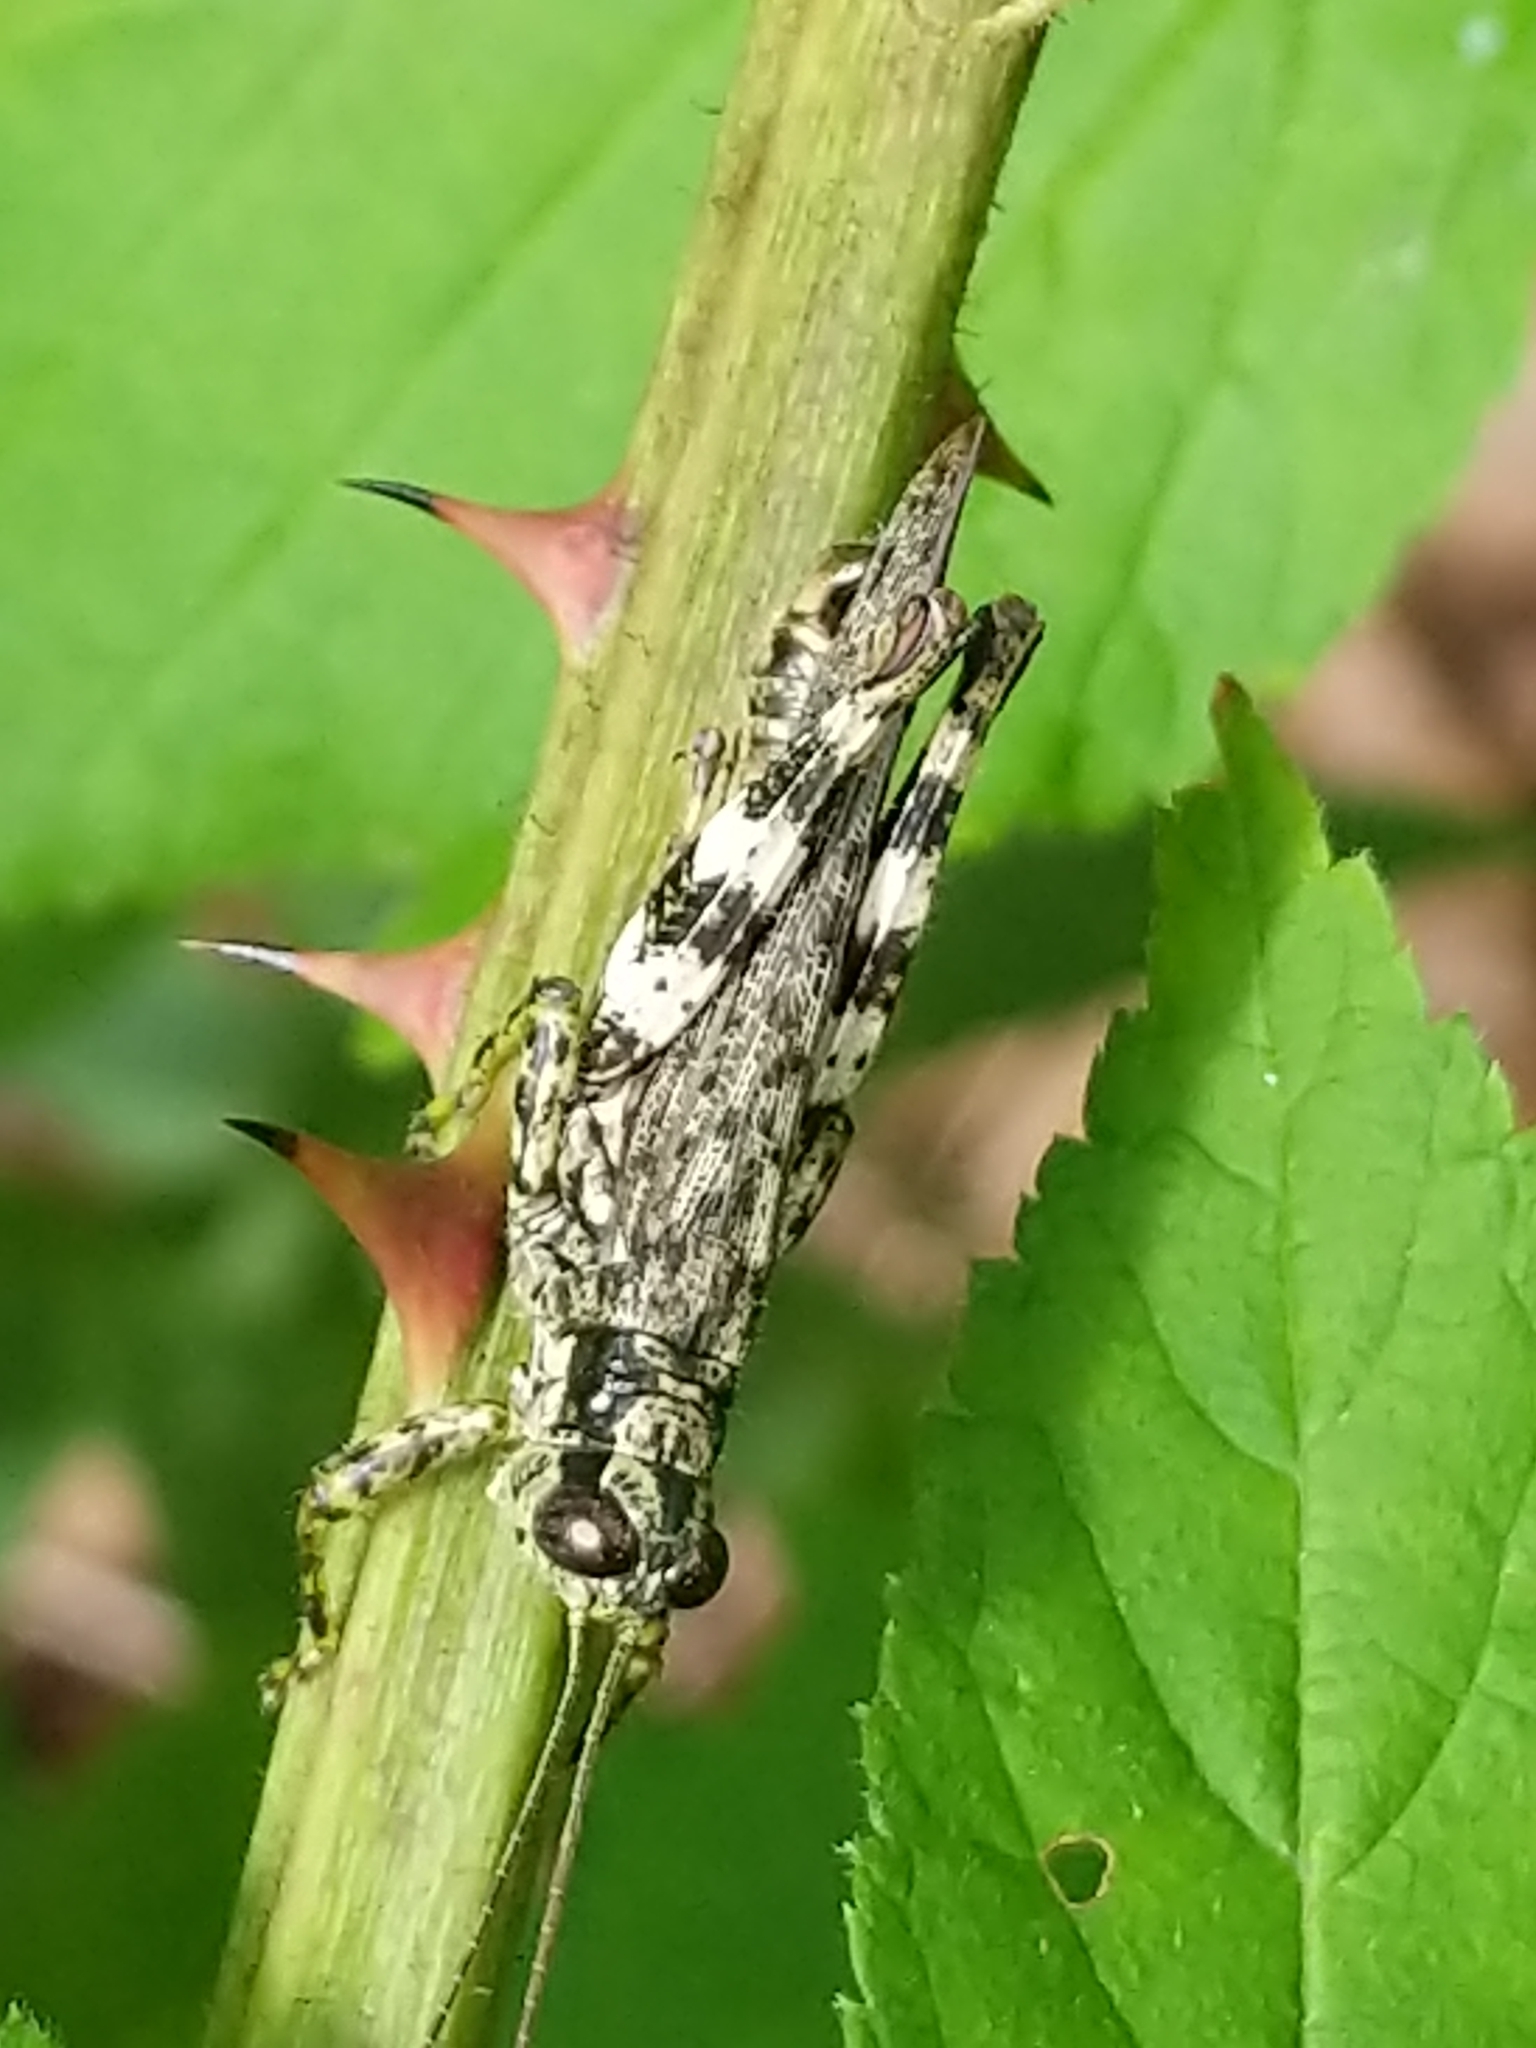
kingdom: Animalia
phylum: Arthropoda
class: Insecta
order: Orthoptera
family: Acrididae
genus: Melanoplus
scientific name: Melanoplus punctulatus
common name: Pine-tree spur-throat grasshopper
